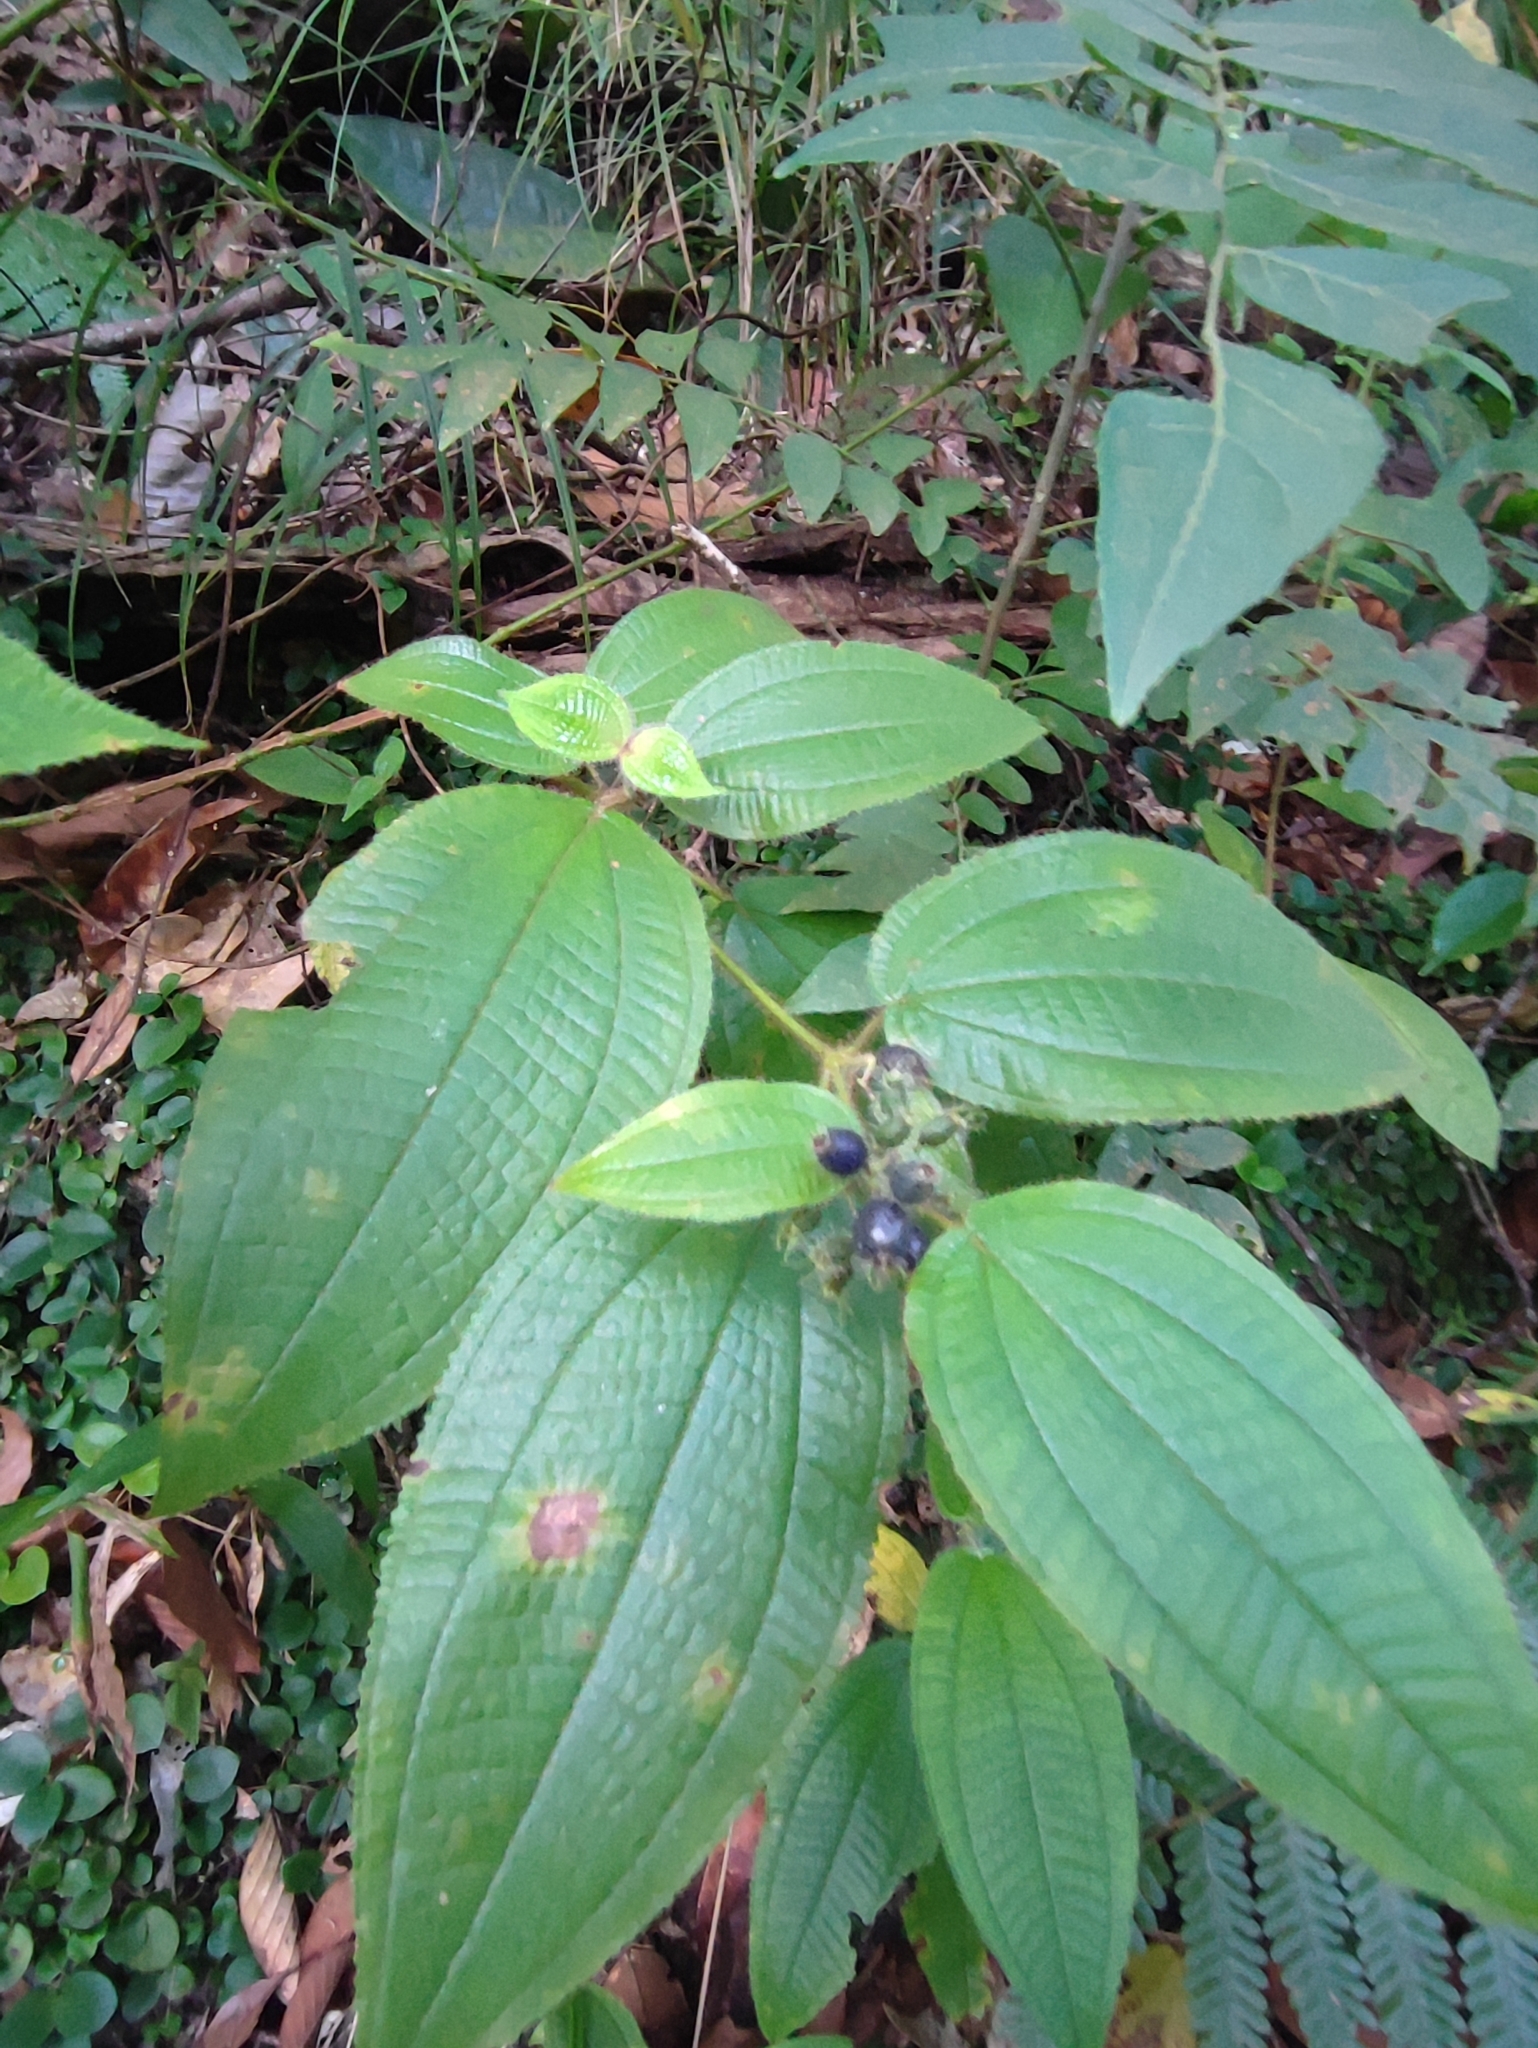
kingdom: Plantae
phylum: Tracheophyta
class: Magnoliopsida
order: Myrtales
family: Melastomataceae
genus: Miconia
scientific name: Miconia crenata
